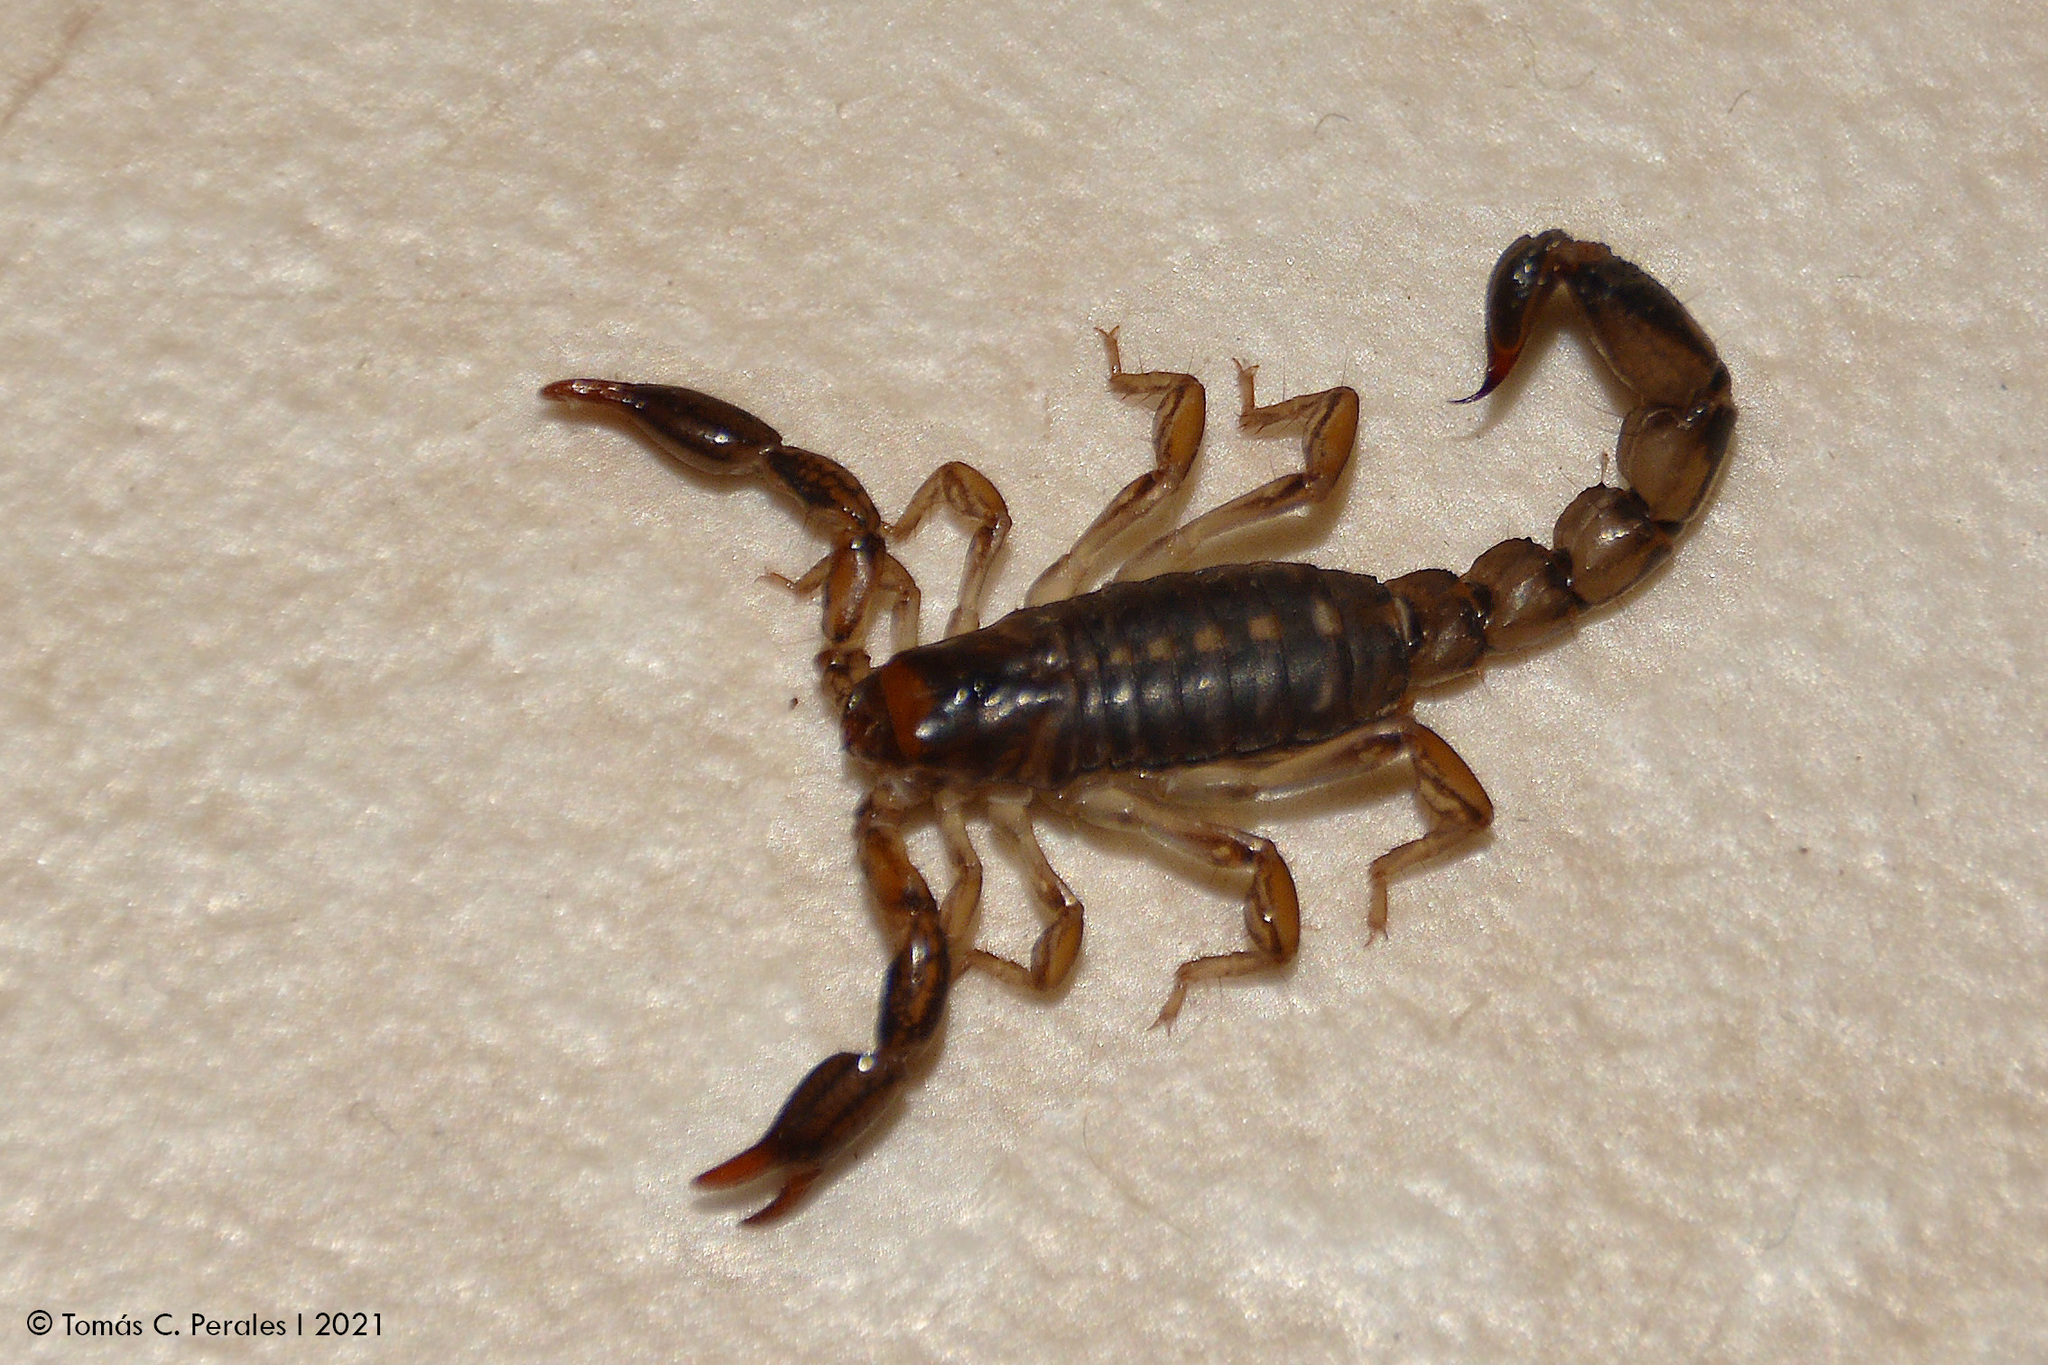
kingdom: Animalia
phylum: Arthropoda
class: Arachnida
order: Scorpiones
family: Bothriuridae
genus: Bothriurus
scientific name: Bothriurus cordubensis
